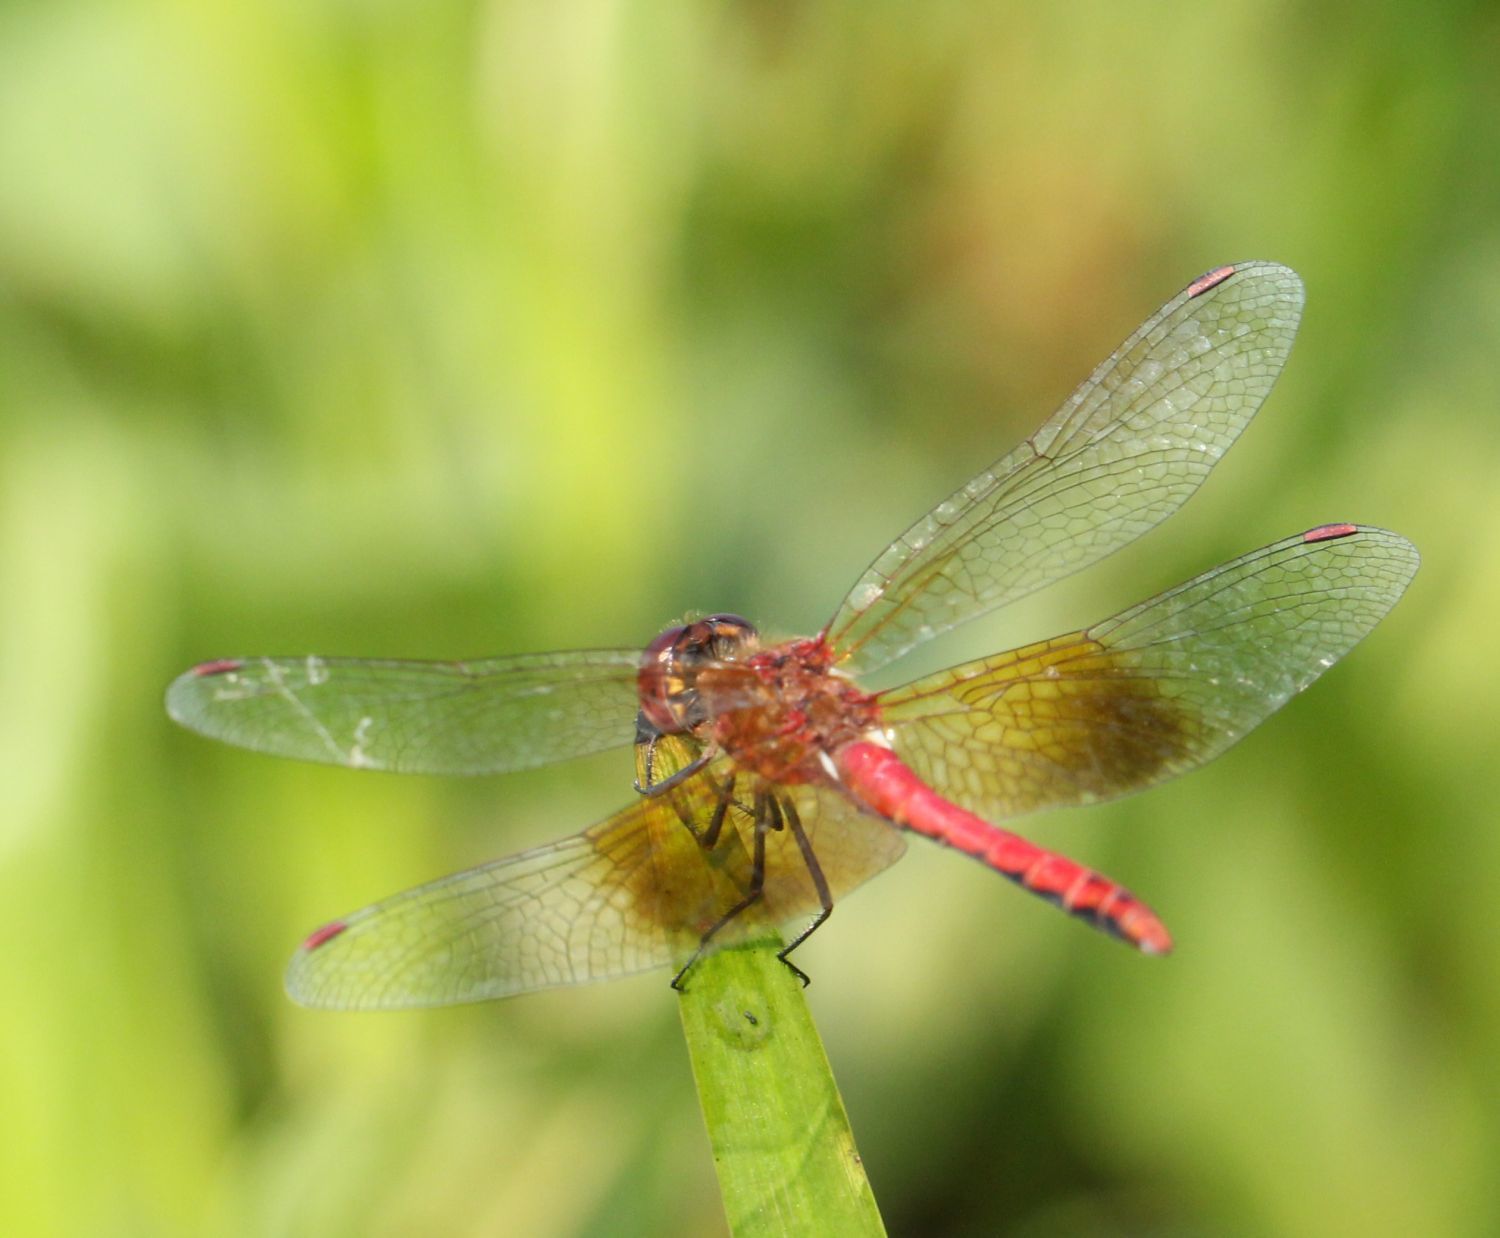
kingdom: Animalia
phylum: Arthropoda
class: Insecta
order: Odonata
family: Libellulidae
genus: Sympetrum
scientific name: Sympetrum semicinctum
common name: Band-winged meadowhawk
